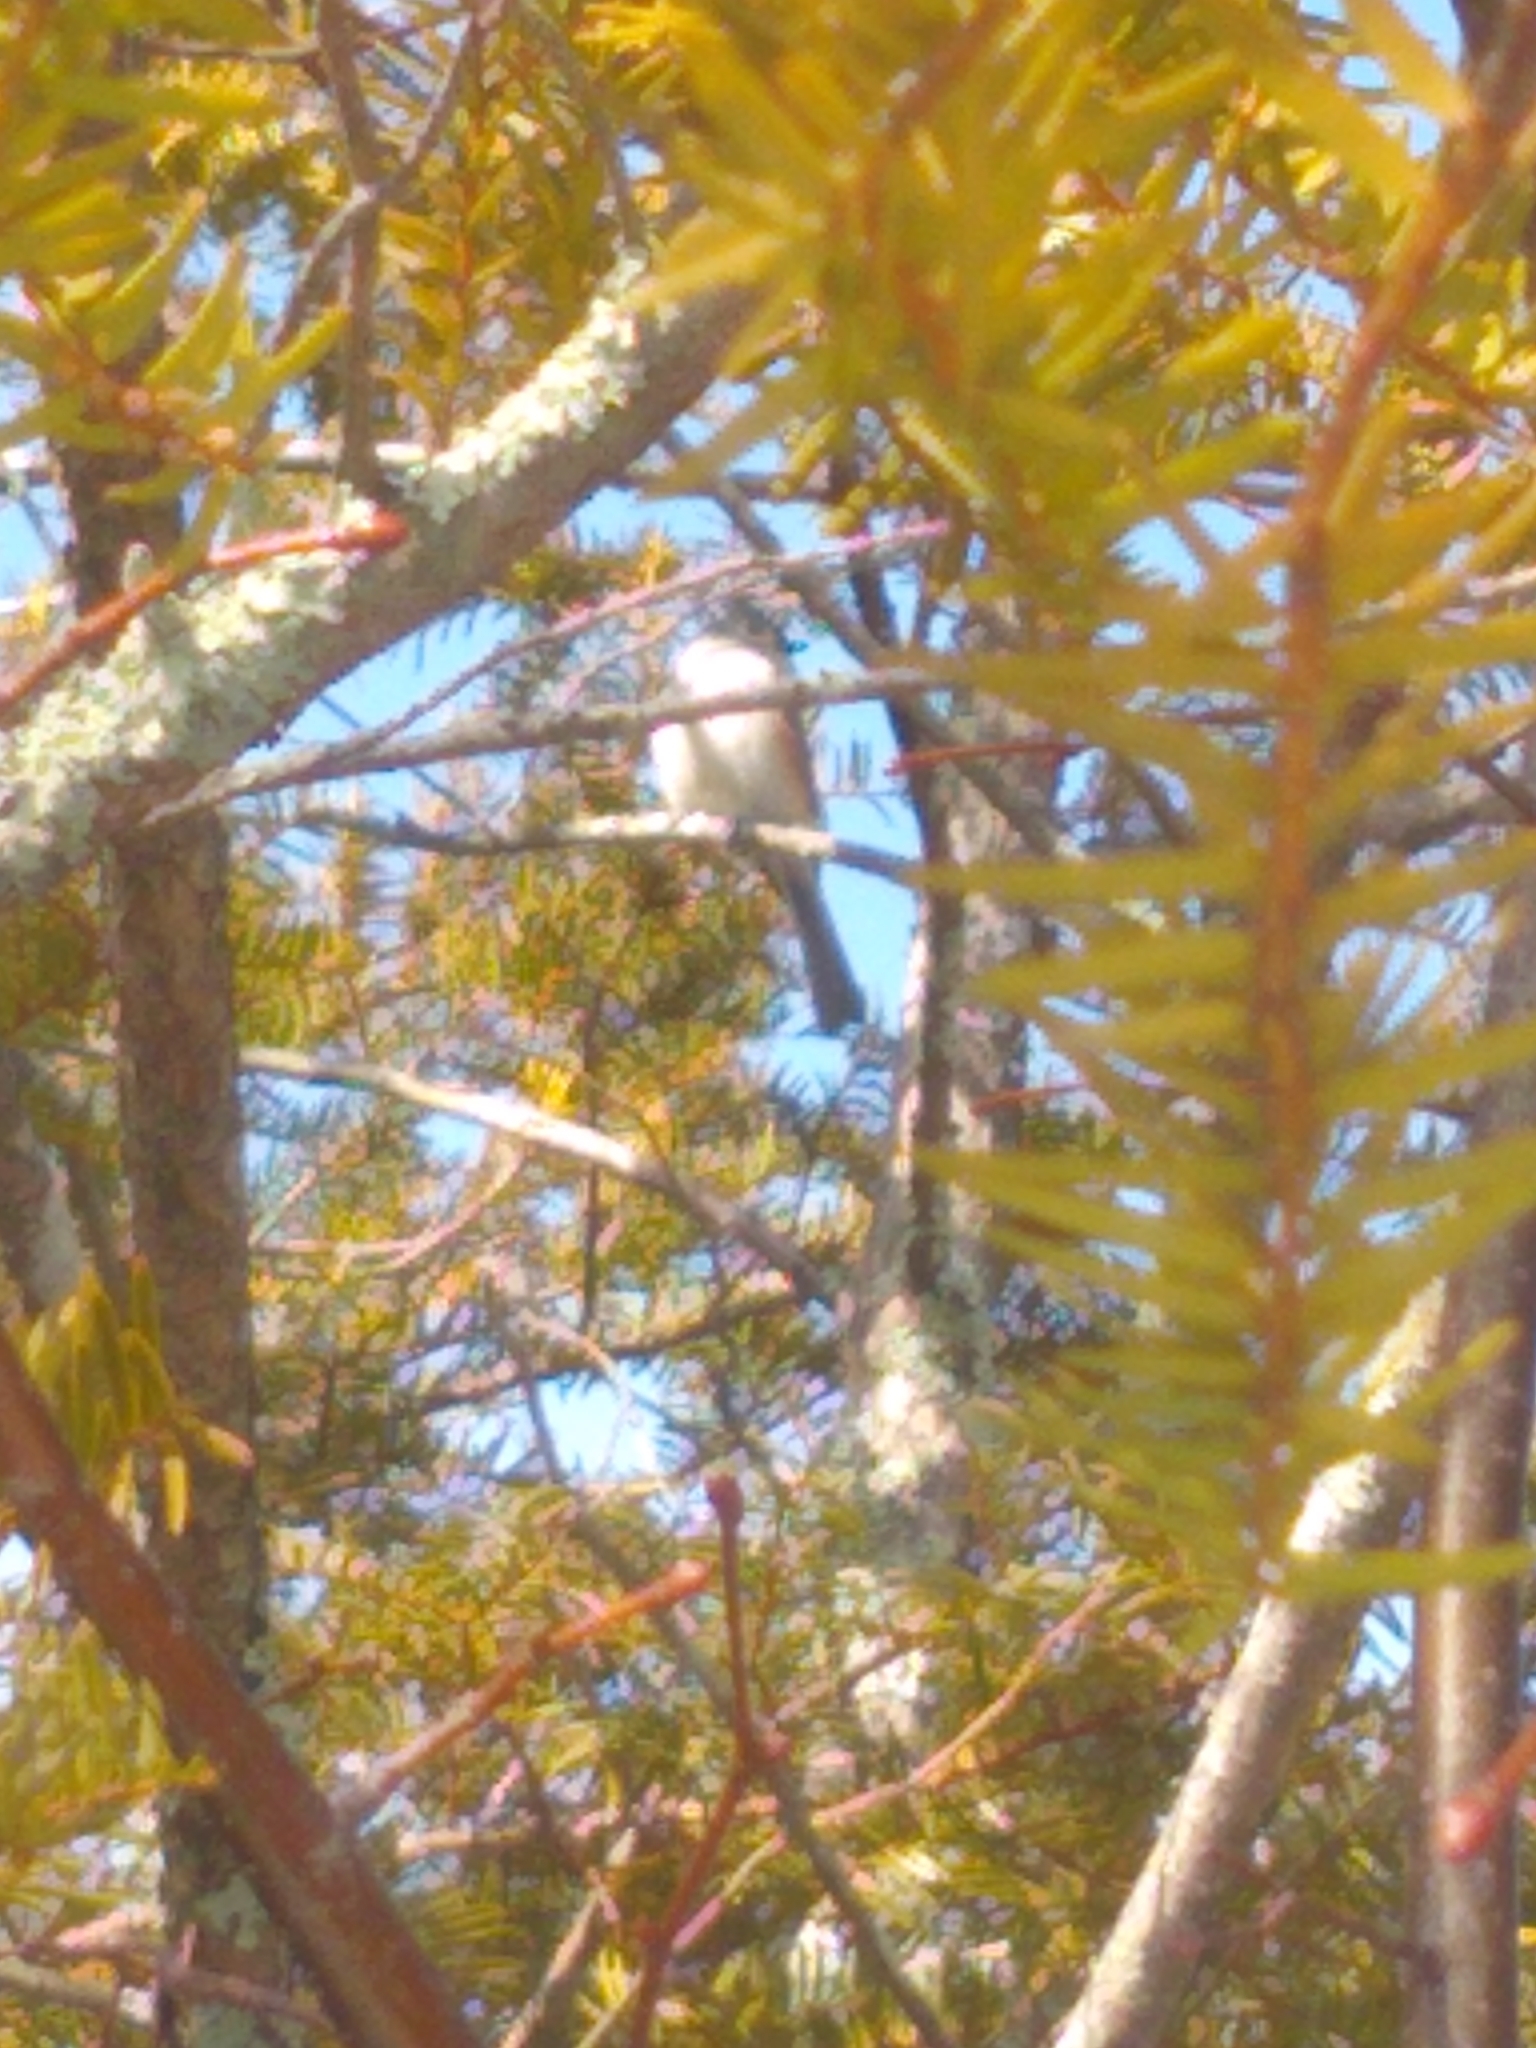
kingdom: Animalia
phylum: Chordata
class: Aves
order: Passeriformes
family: Paridae
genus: Baeolophus
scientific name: Baeolophus bicolor
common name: Tufted titmouse
